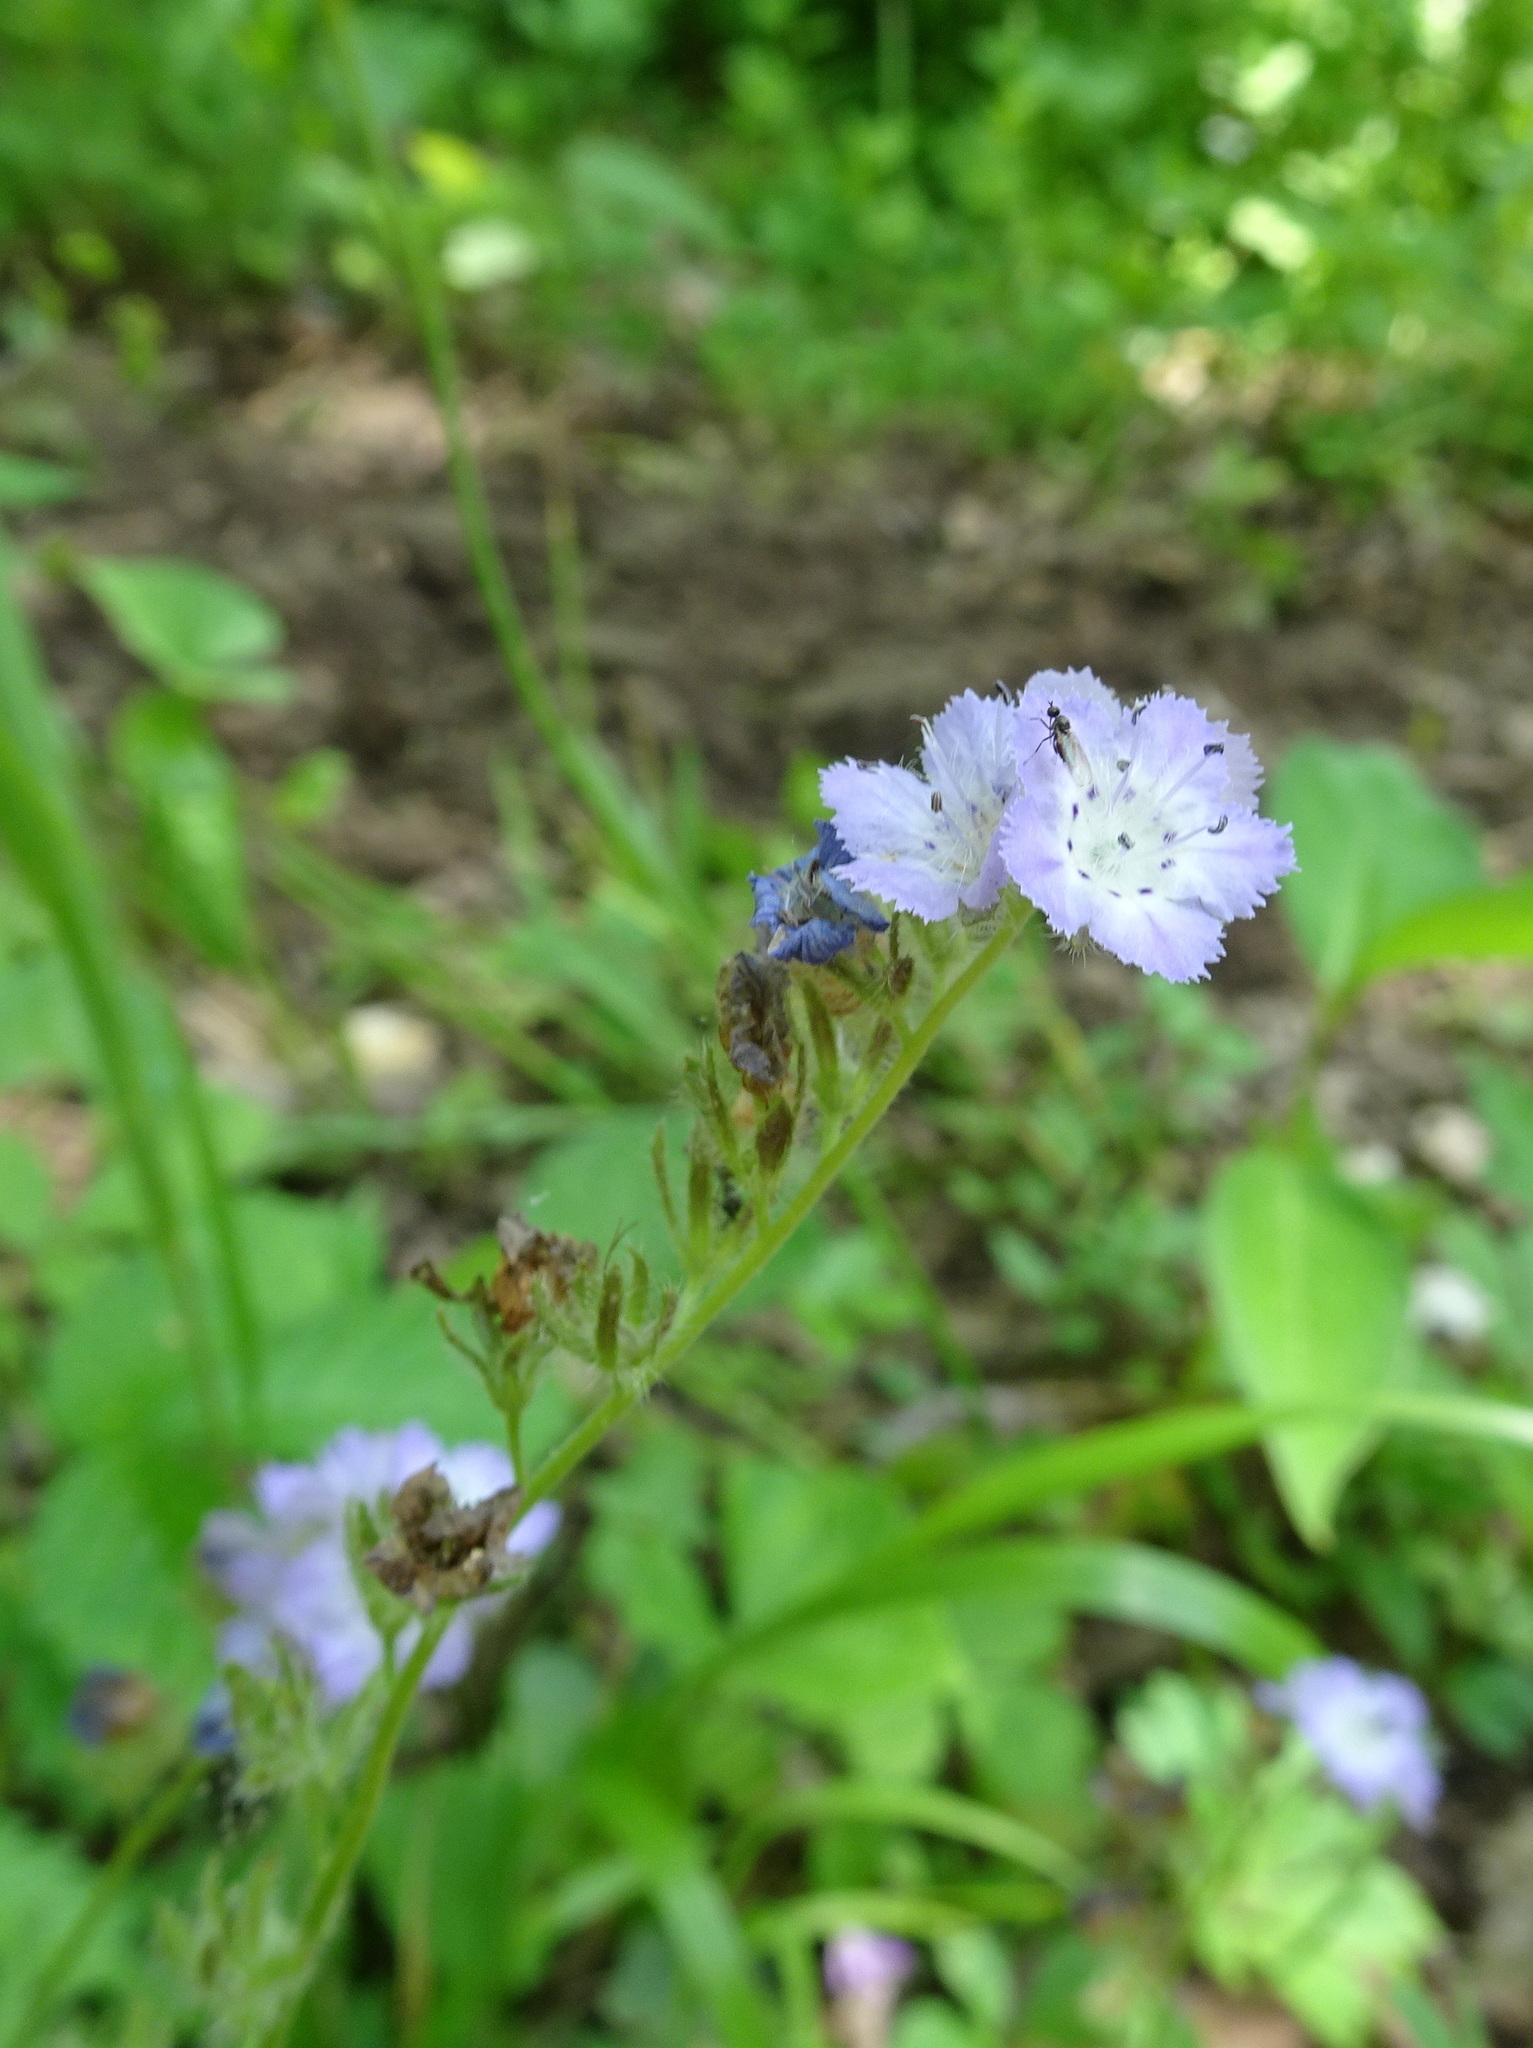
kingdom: Plantae
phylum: Tracheophyta
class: Magnoliopsida
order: Boraginales
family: Hydrophyllaceae
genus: Phacelia
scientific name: Phacelia gilioides
